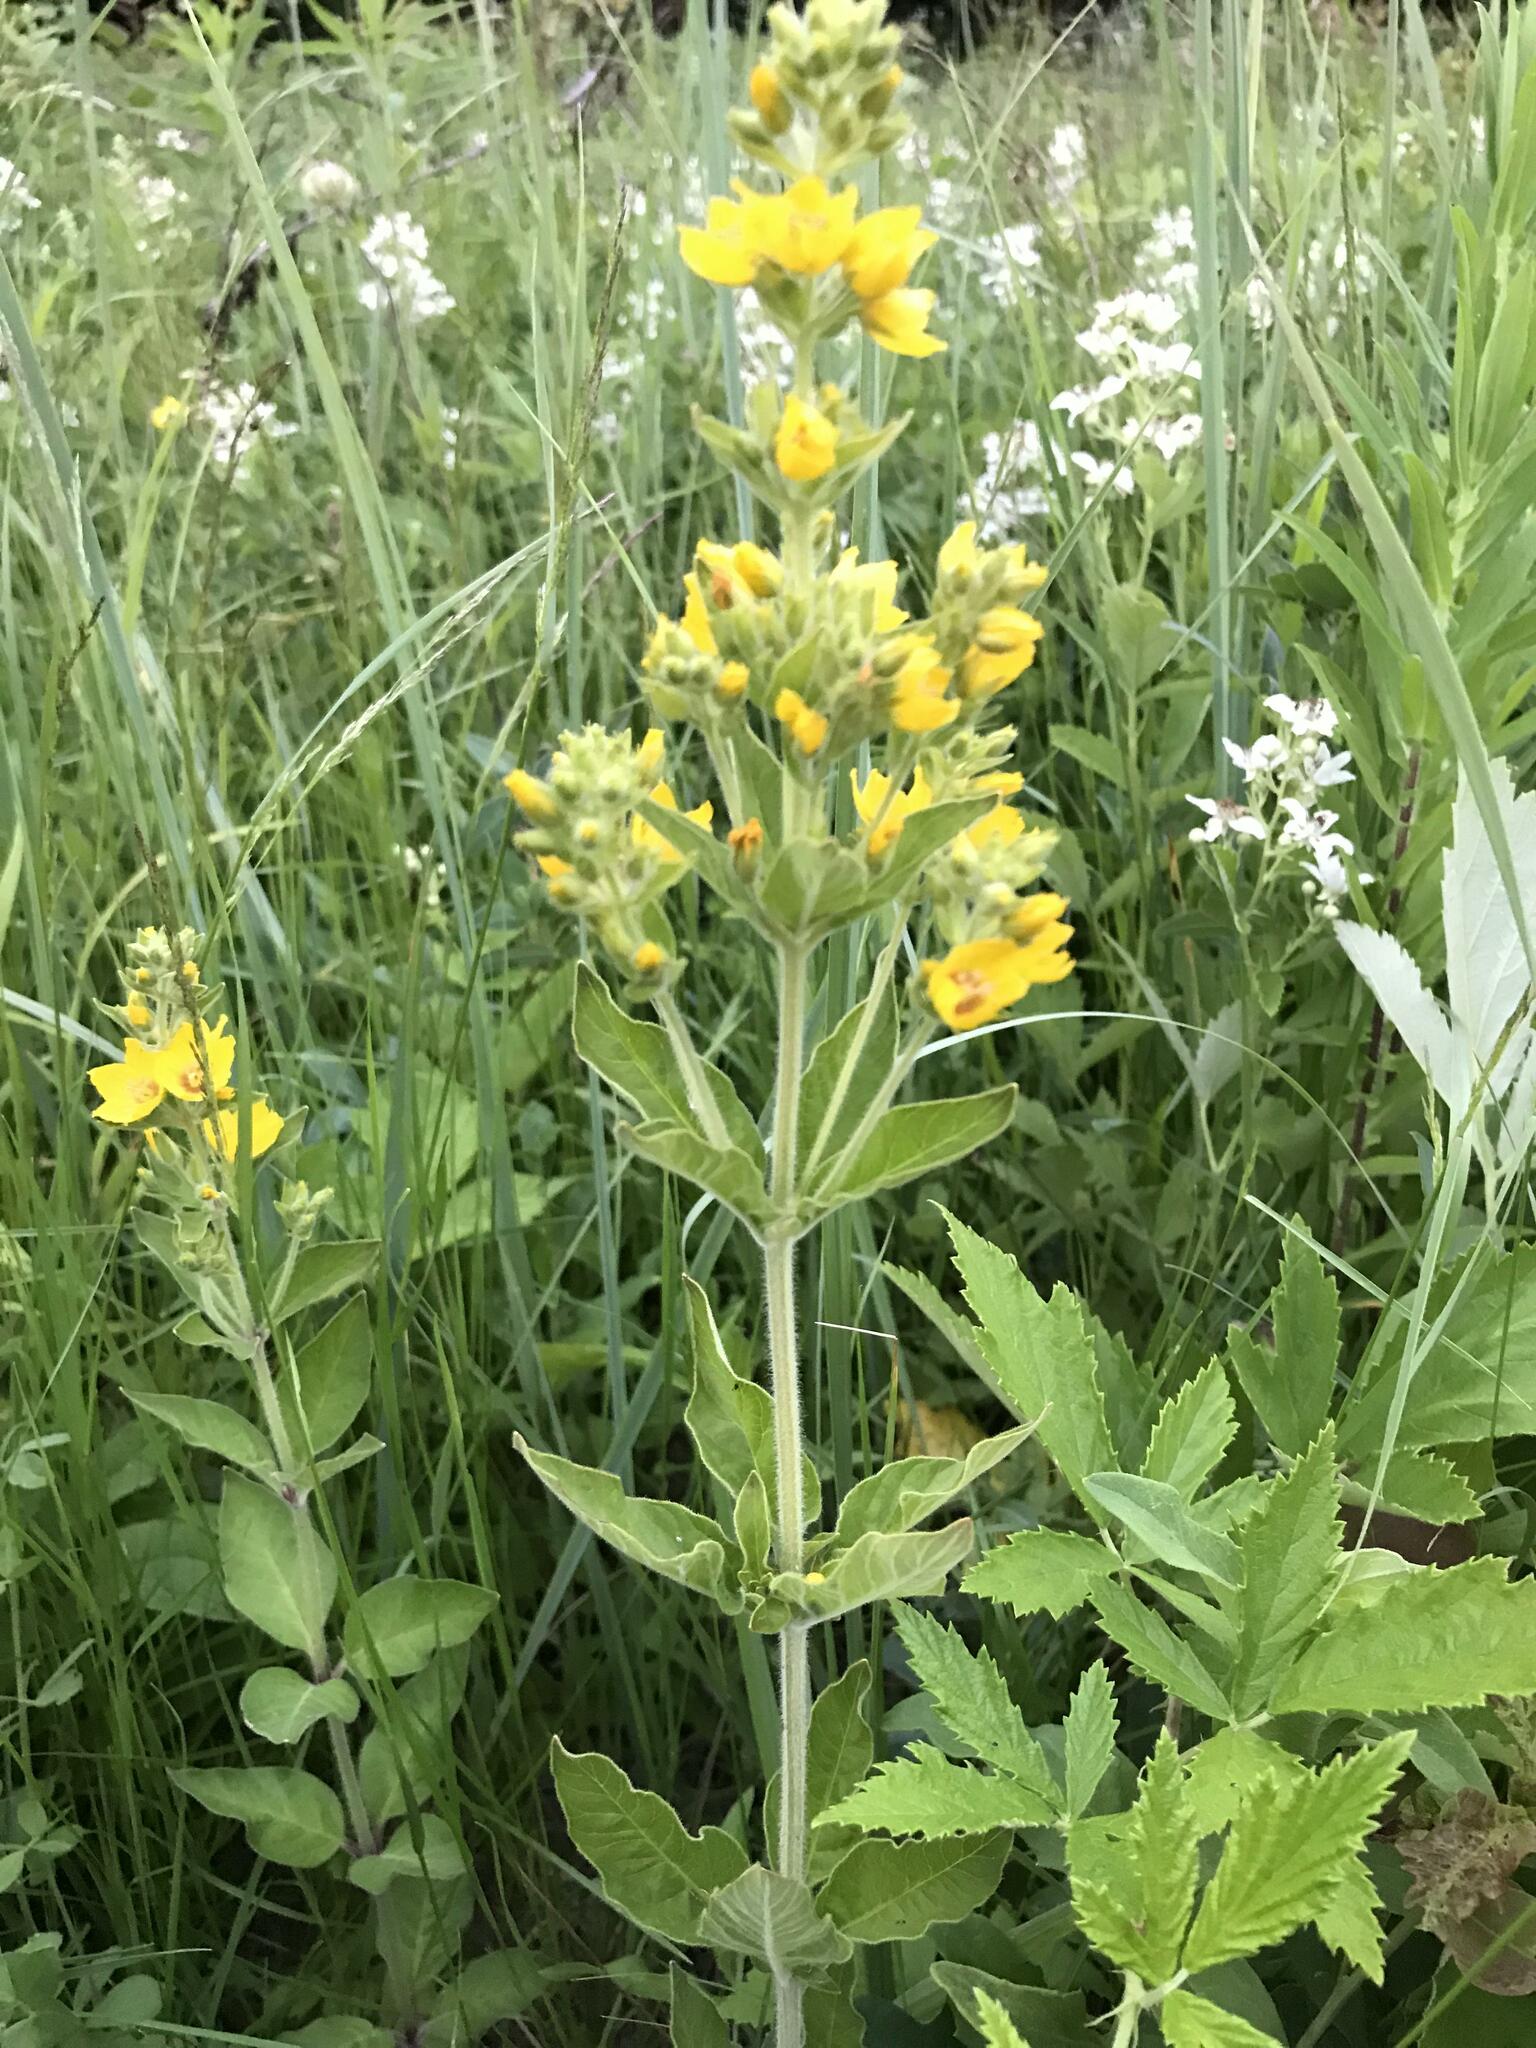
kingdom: Plantae
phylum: Tracheophyta
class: Magnoliopsida
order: Ericales
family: Primulaceae
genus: Lysimachia
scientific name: Lysimachia verticillaris
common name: Yellow loosestrife
